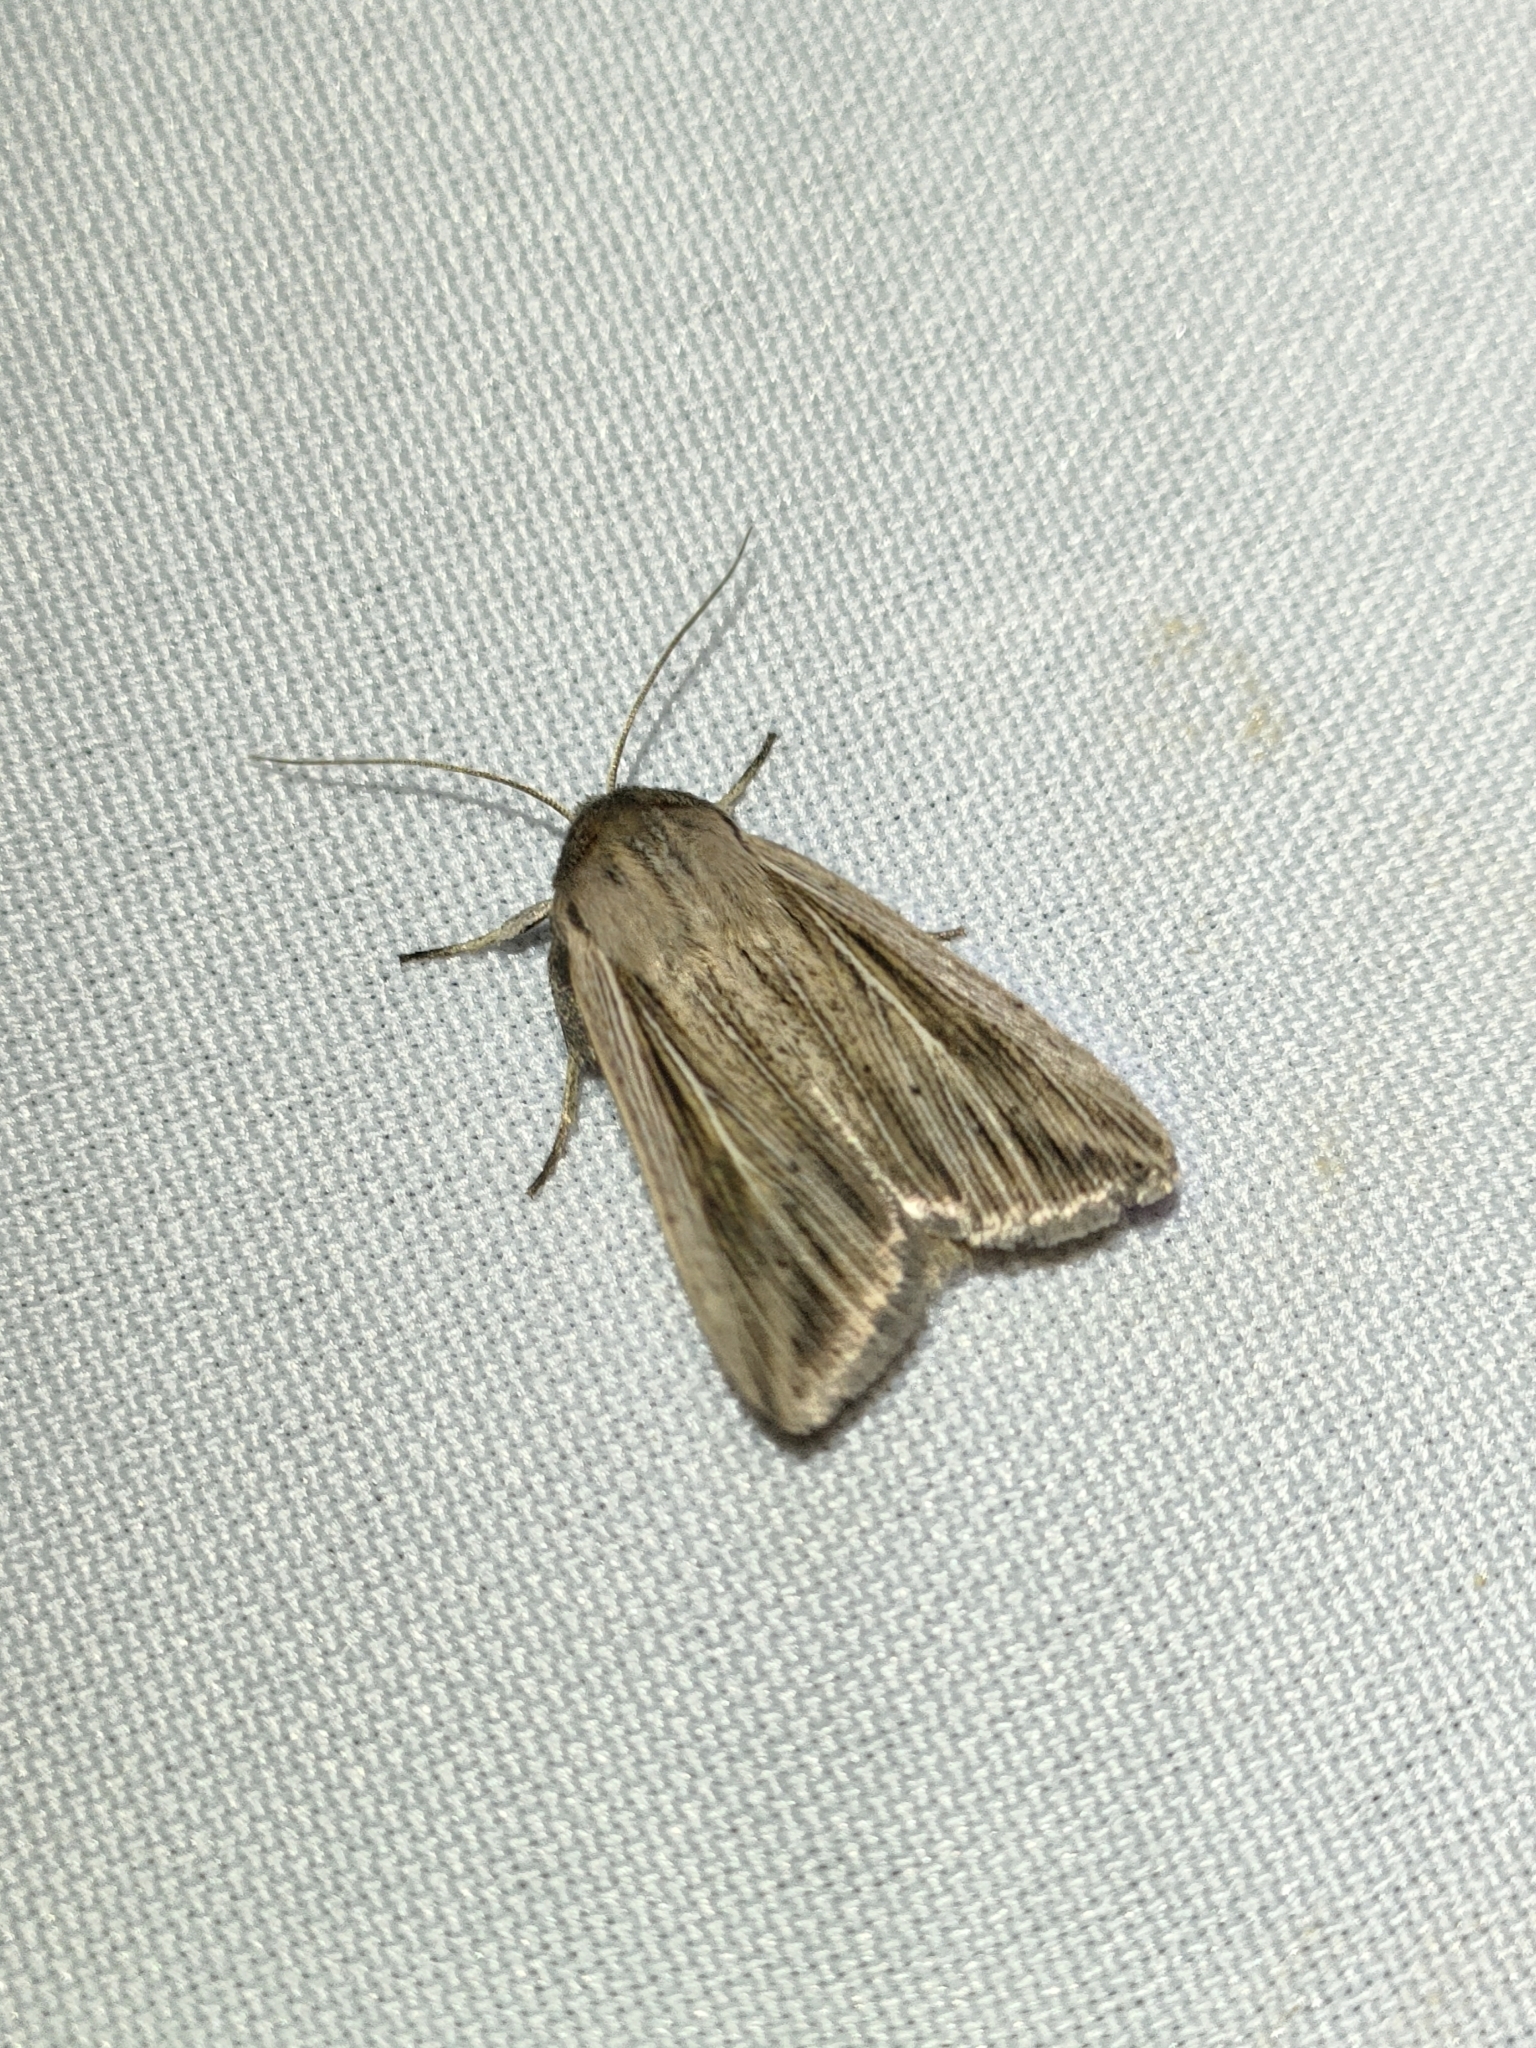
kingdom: Animalia
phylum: Arthropoda
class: Insecta
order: Lepidoptera
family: Noctuidae
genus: Mythimna
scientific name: Mythimna riparia
